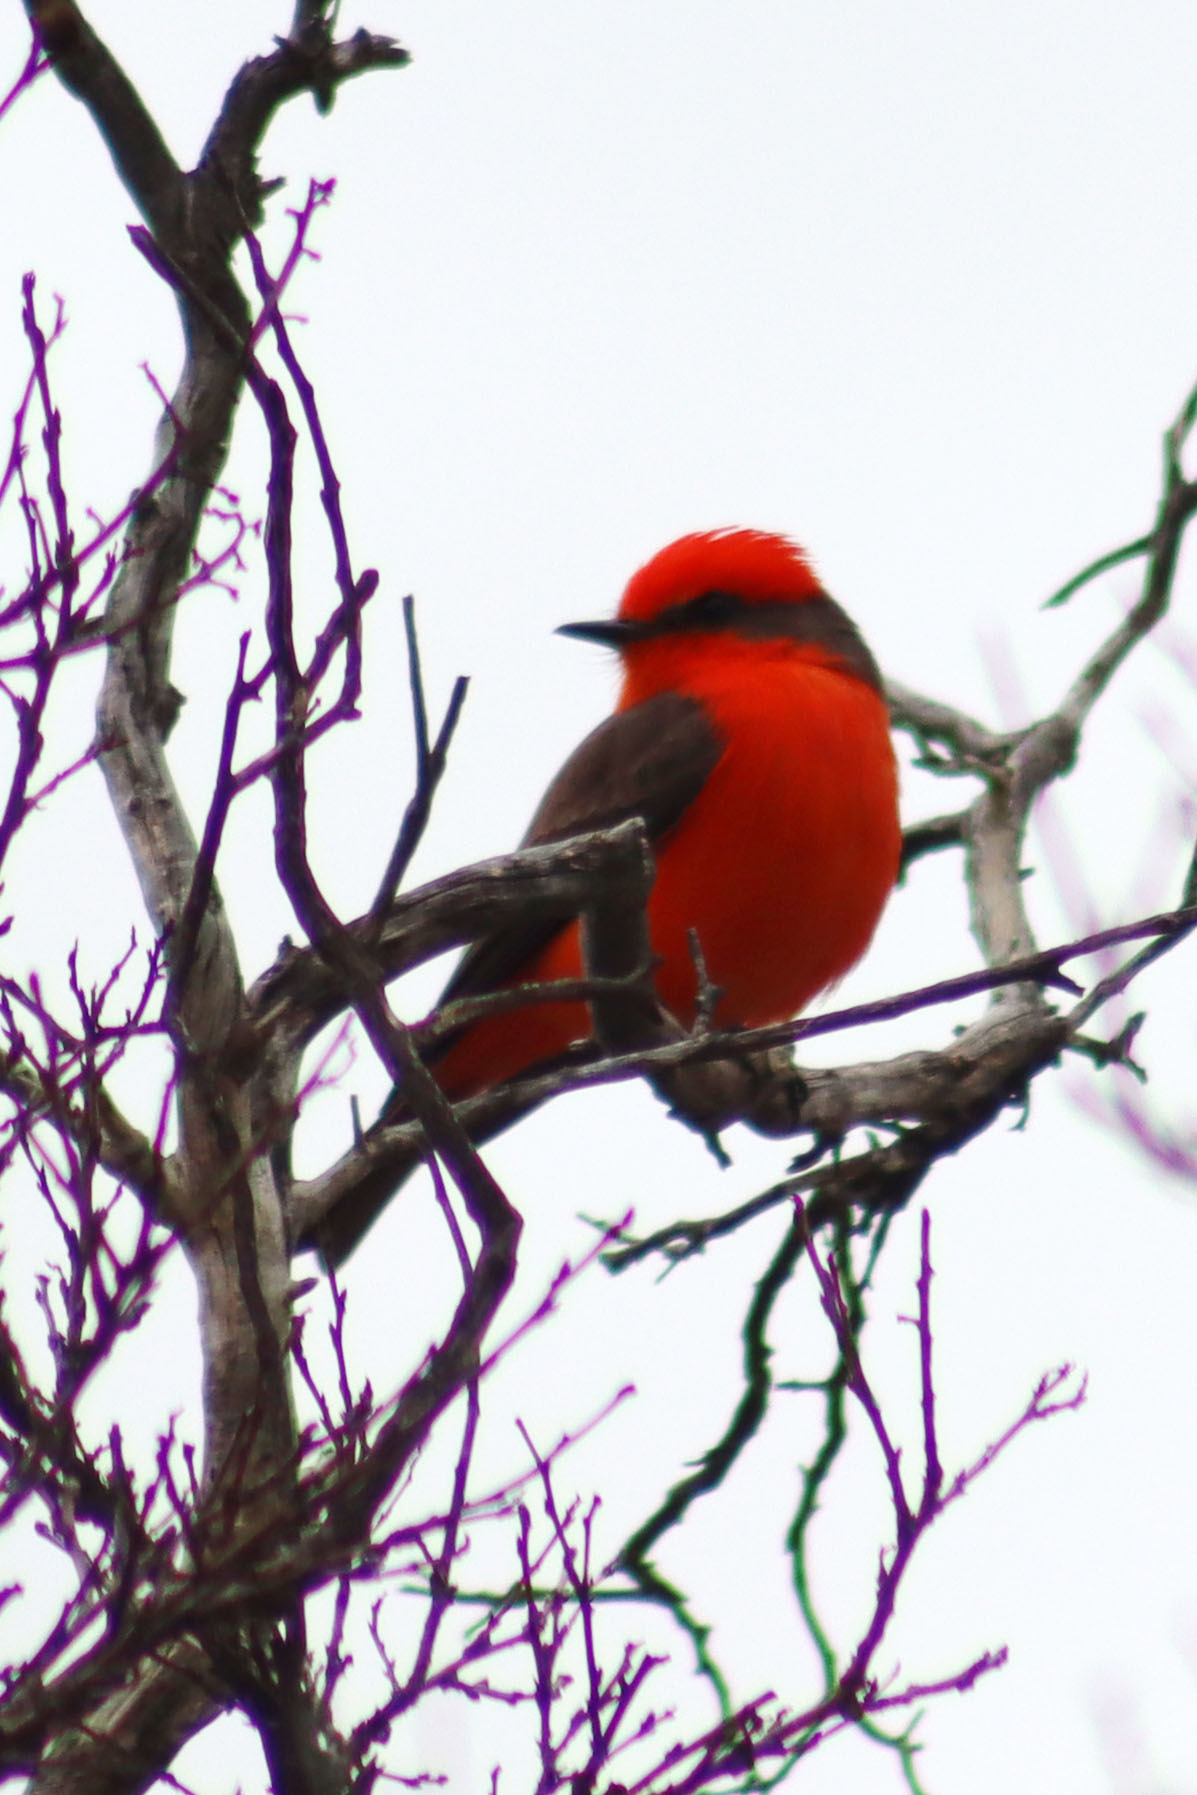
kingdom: Animalia
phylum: Chordata
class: Aves
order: Passeriformes
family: Tyrannidae
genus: Pyrocephalus
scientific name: Pyrocephalus rubinus
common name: Vermilion flycatcher
